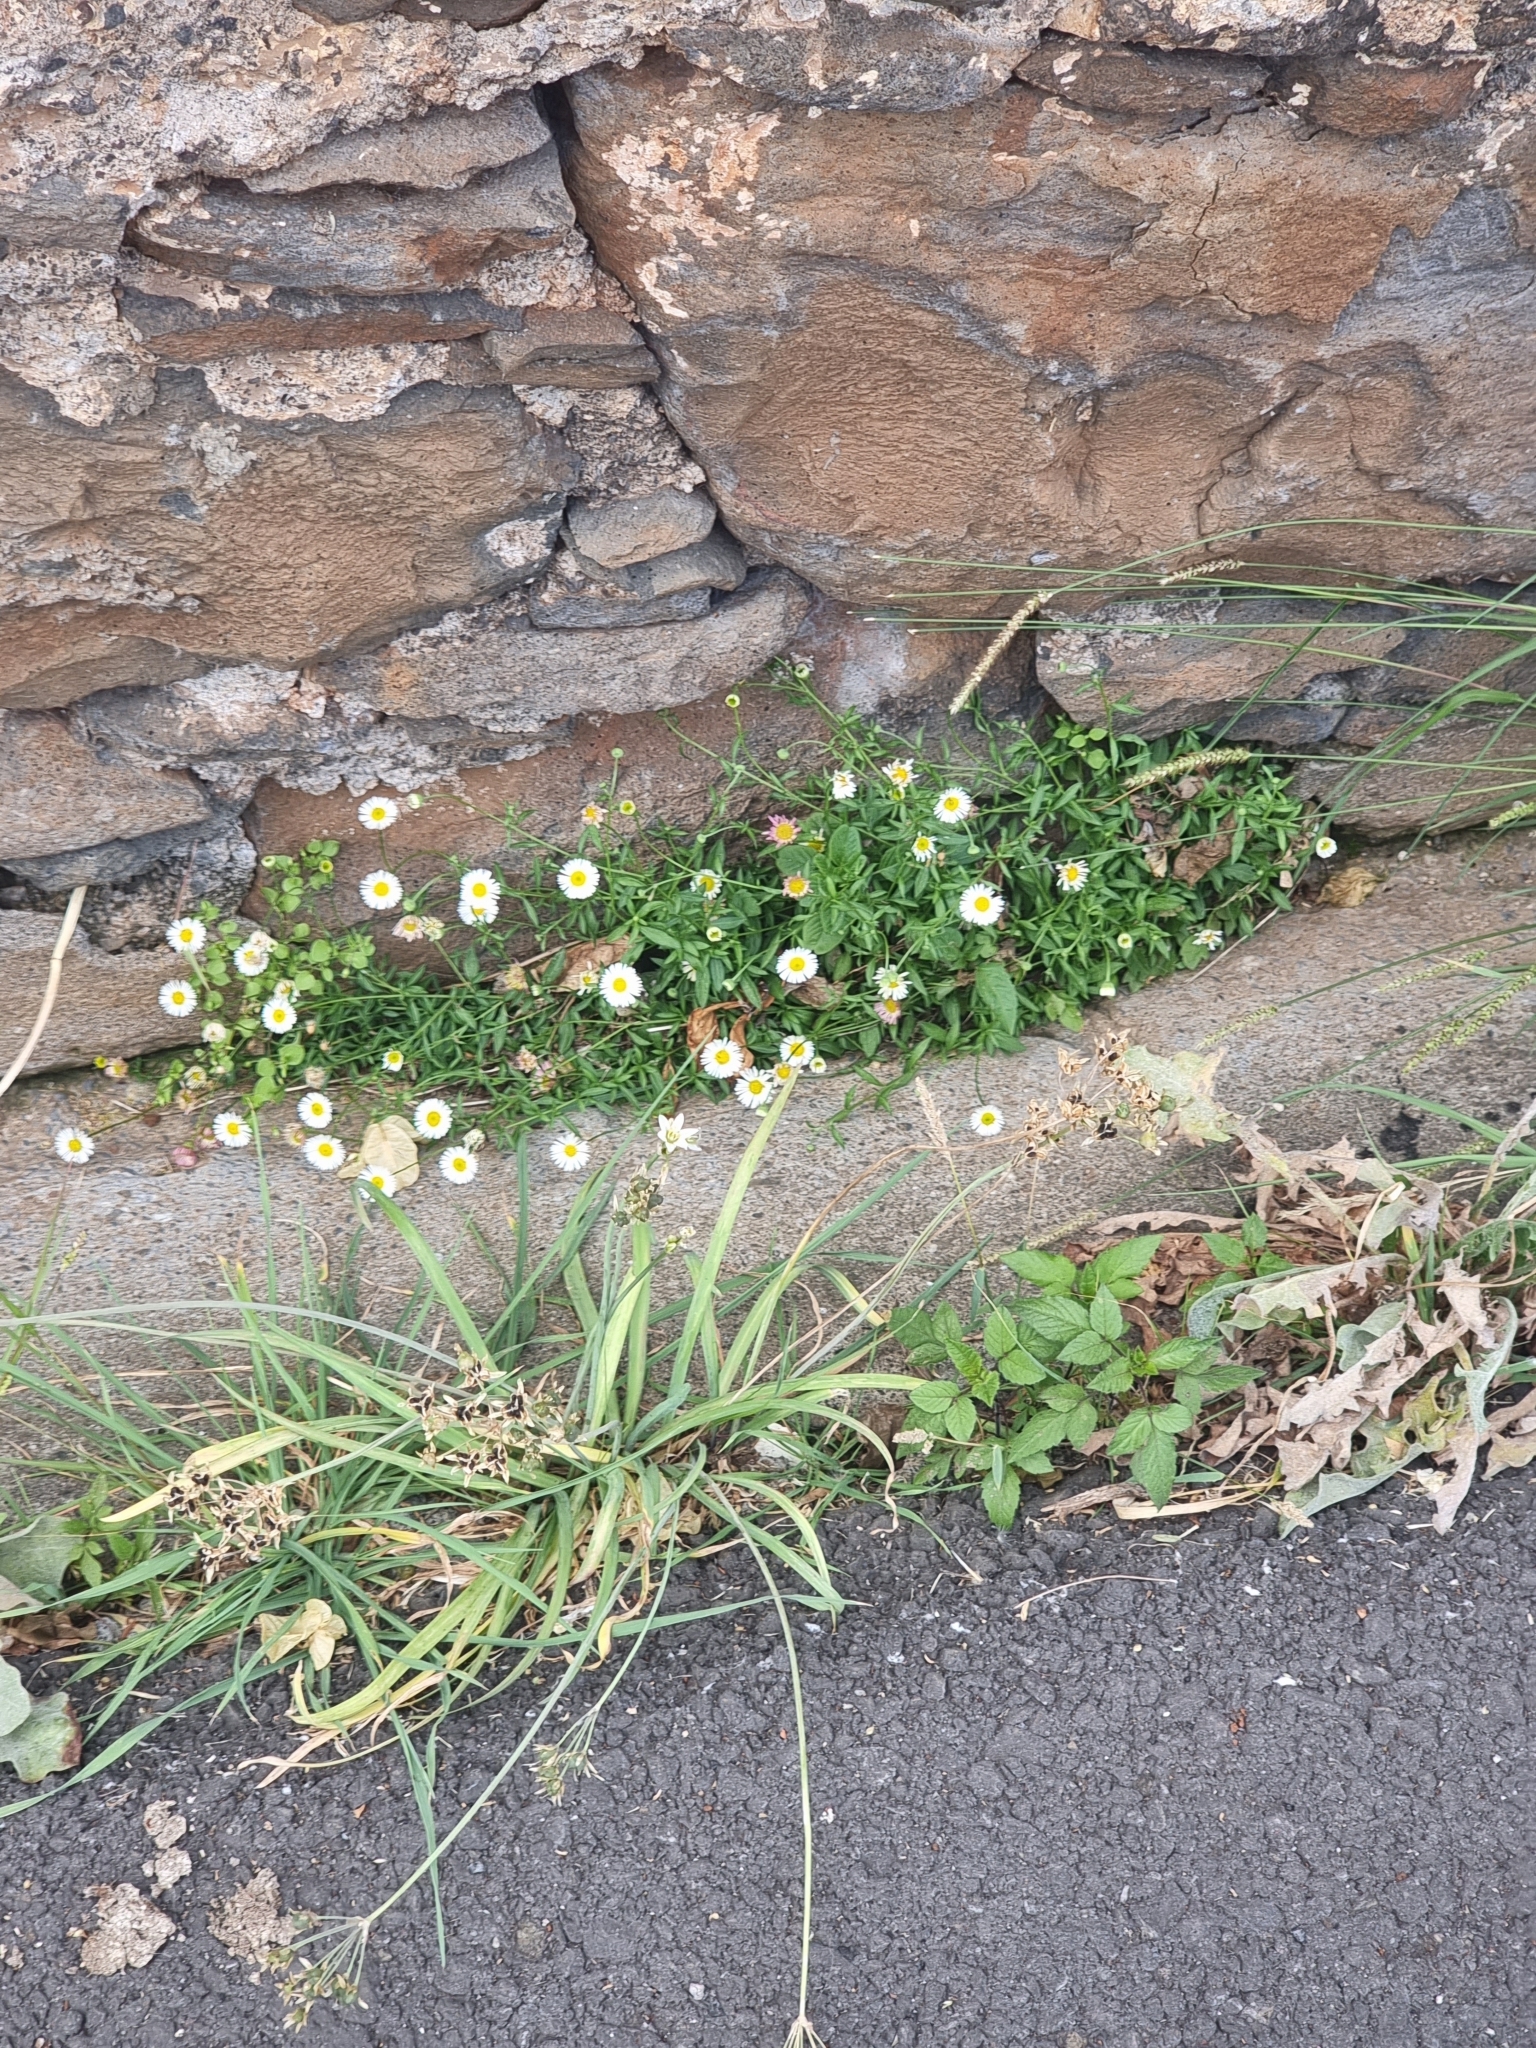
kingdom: Plantae
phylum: Tracheophyta
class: Magnoliopsida
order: Asterales
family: Asteraceae
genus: Erigeron
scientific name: Erigeron karvinskianus
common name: Mexican fleabane
